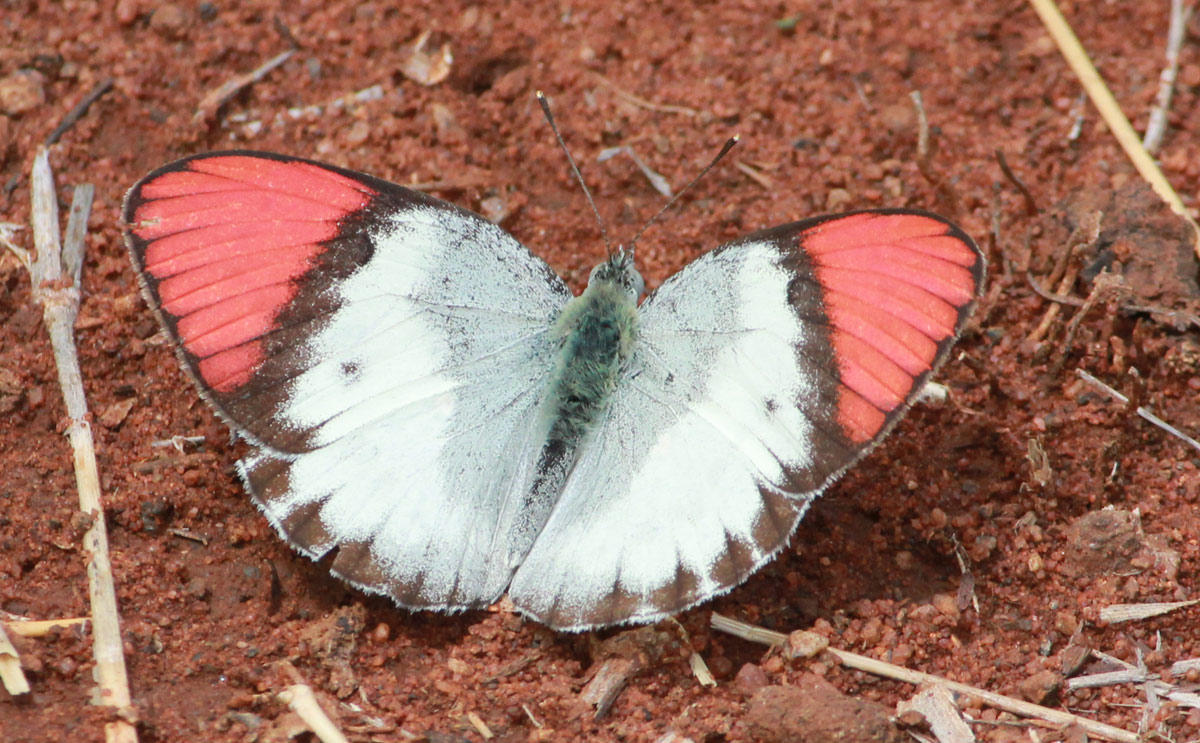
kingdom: Animalia
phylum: Arthropoda
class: Insecta
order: Lepidoptera
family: Pieridae
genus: Colotis
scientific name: Colotis annae
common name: Scarlet tip
